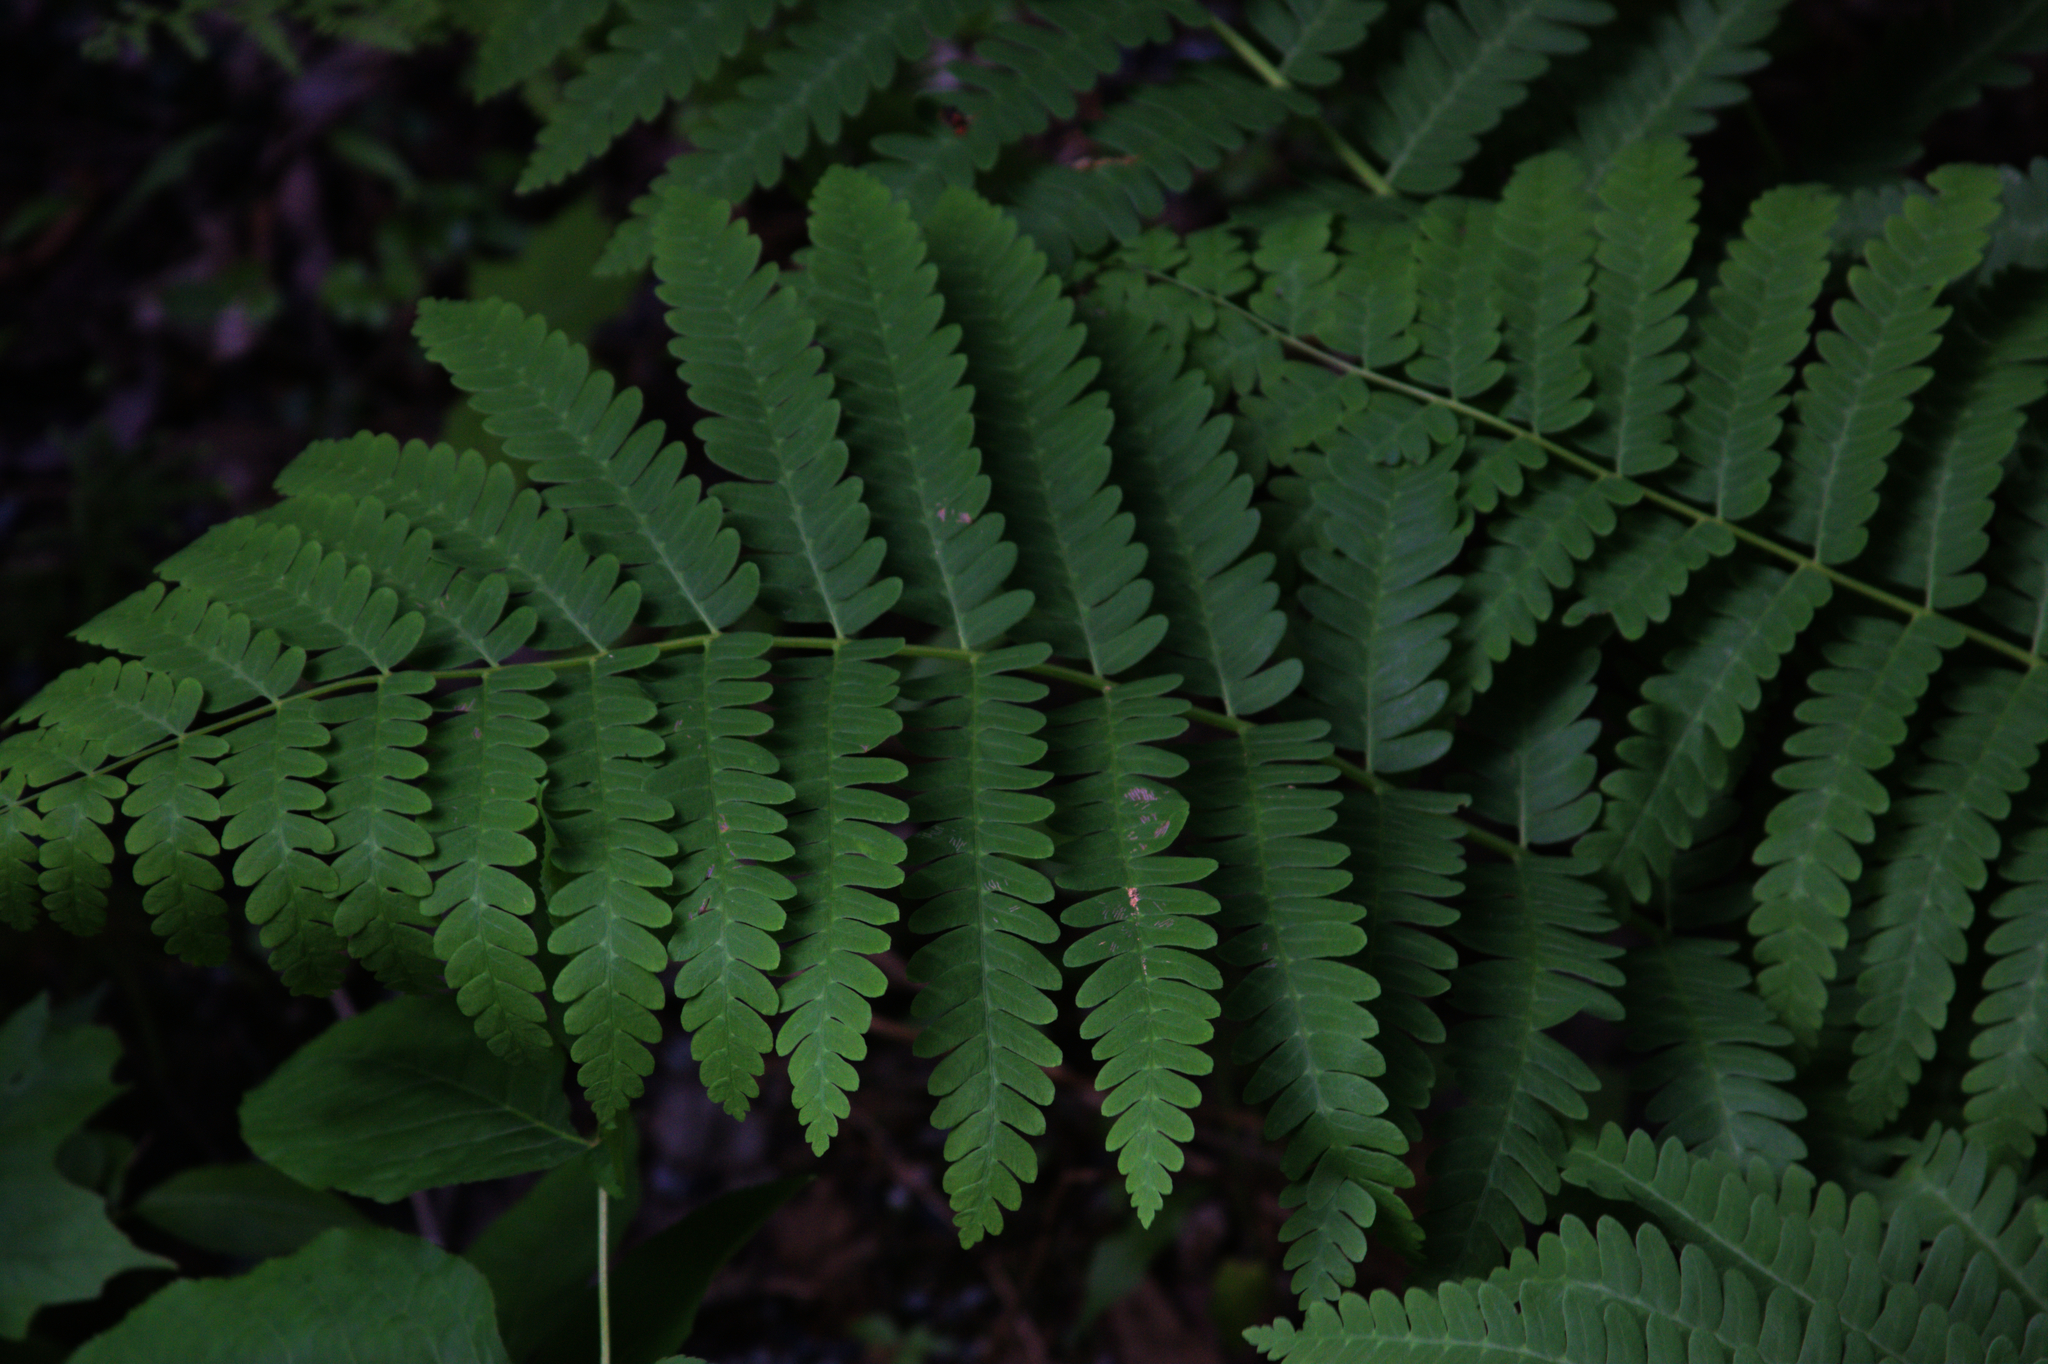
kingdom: Plantae
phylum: Tracheophyta
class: Polypodiopsida
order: Osmundales
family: Osmundaceae
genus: Claytosmunda
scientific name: Claytosmunda claytoniana
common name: Clayton's fern
